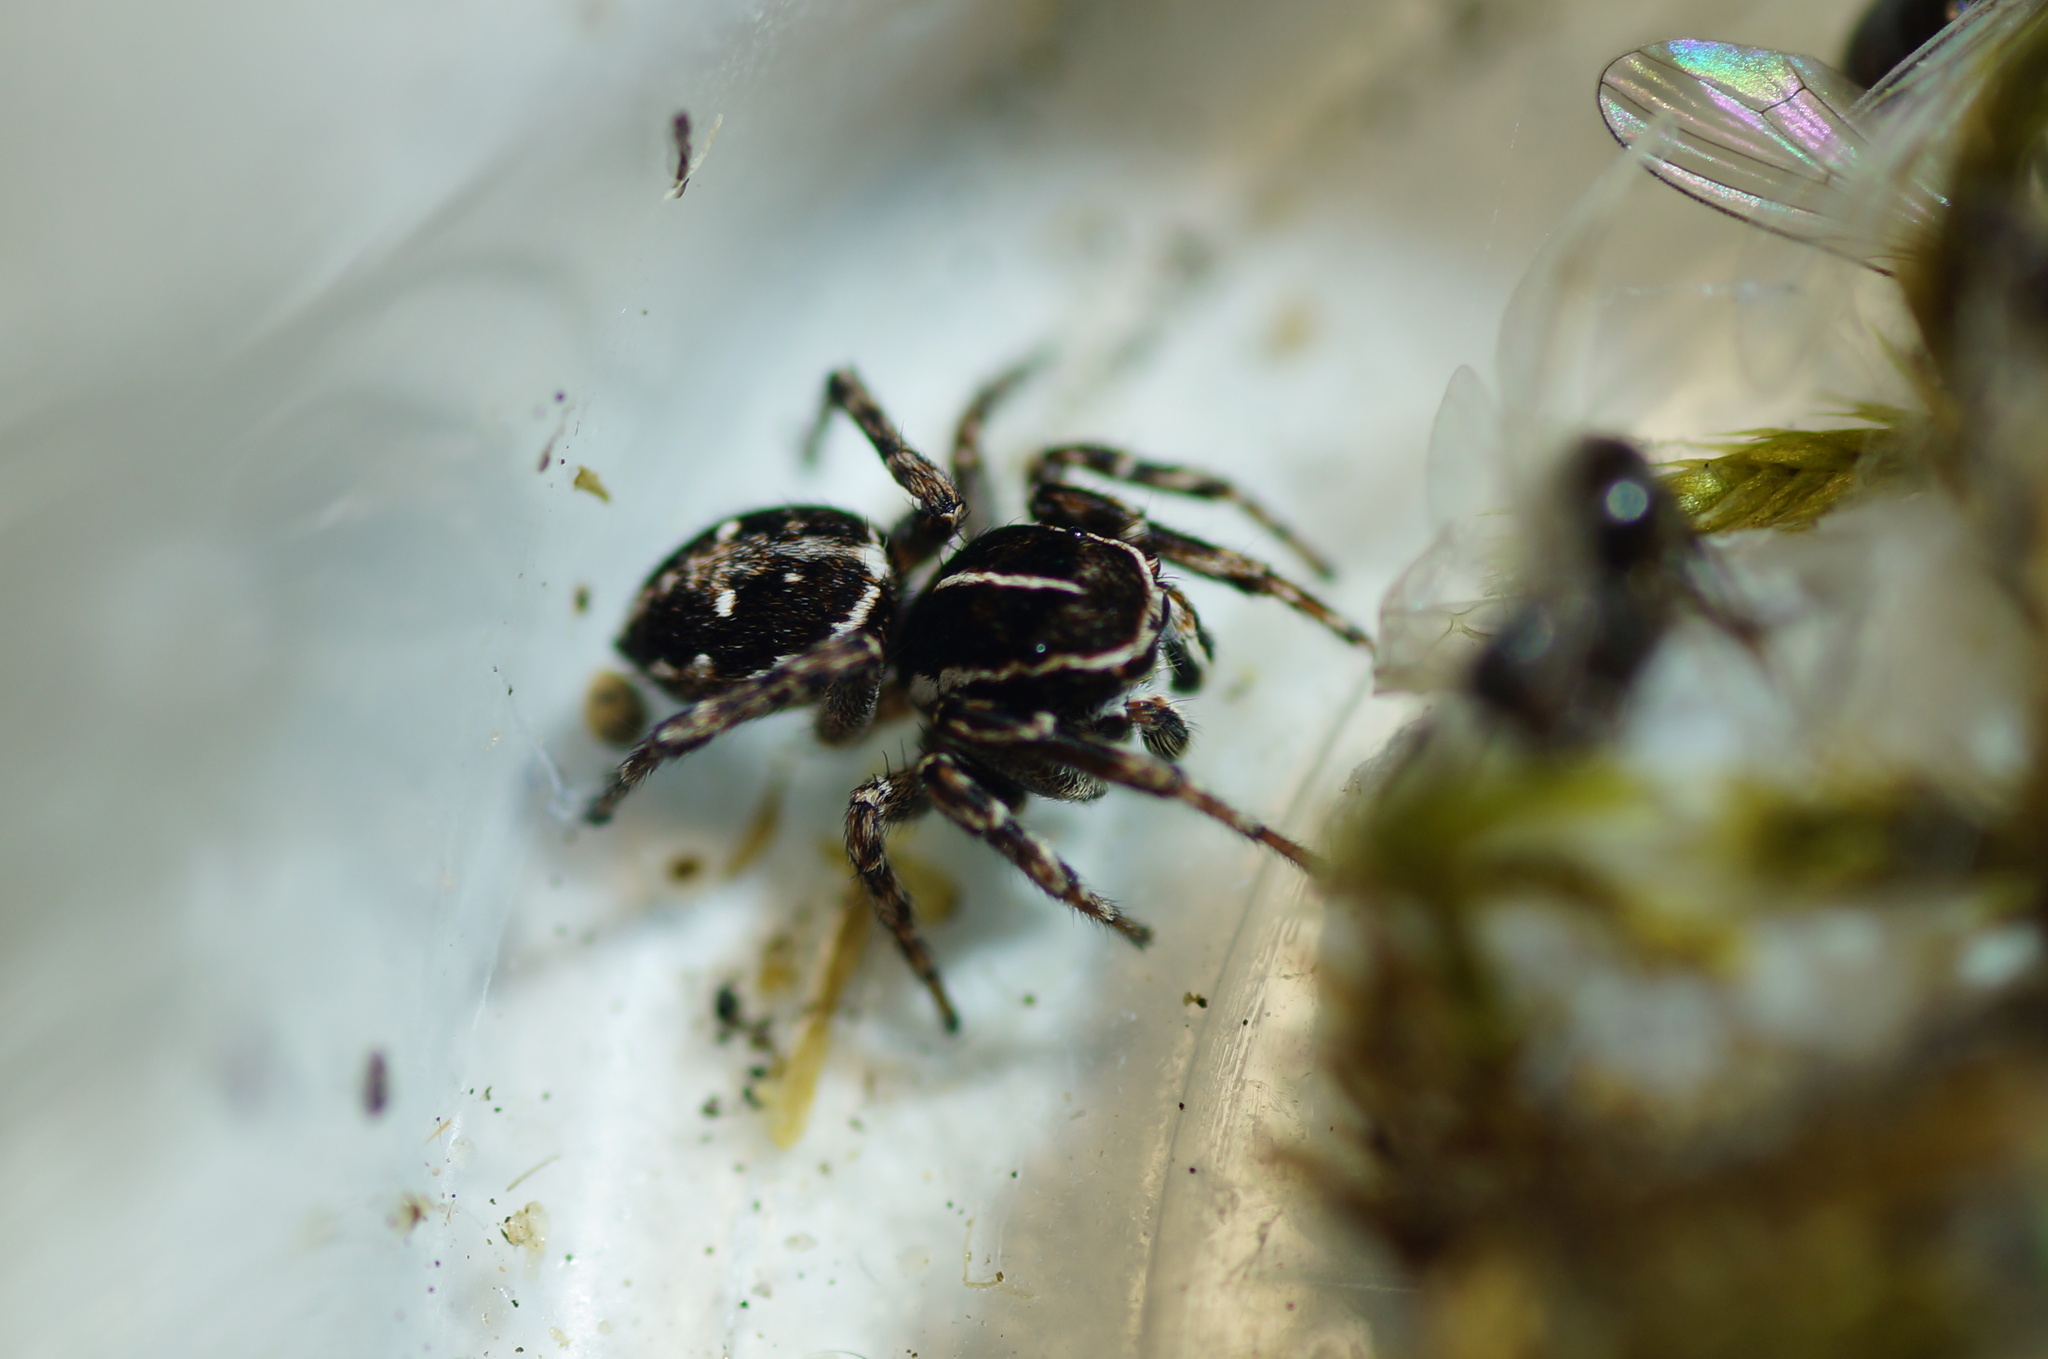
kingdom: Animalia
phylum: Arthropoda
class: Arachnida
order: Araneae
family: Salticidae
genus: Attulus
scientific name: Attulus dzieduszyckii
